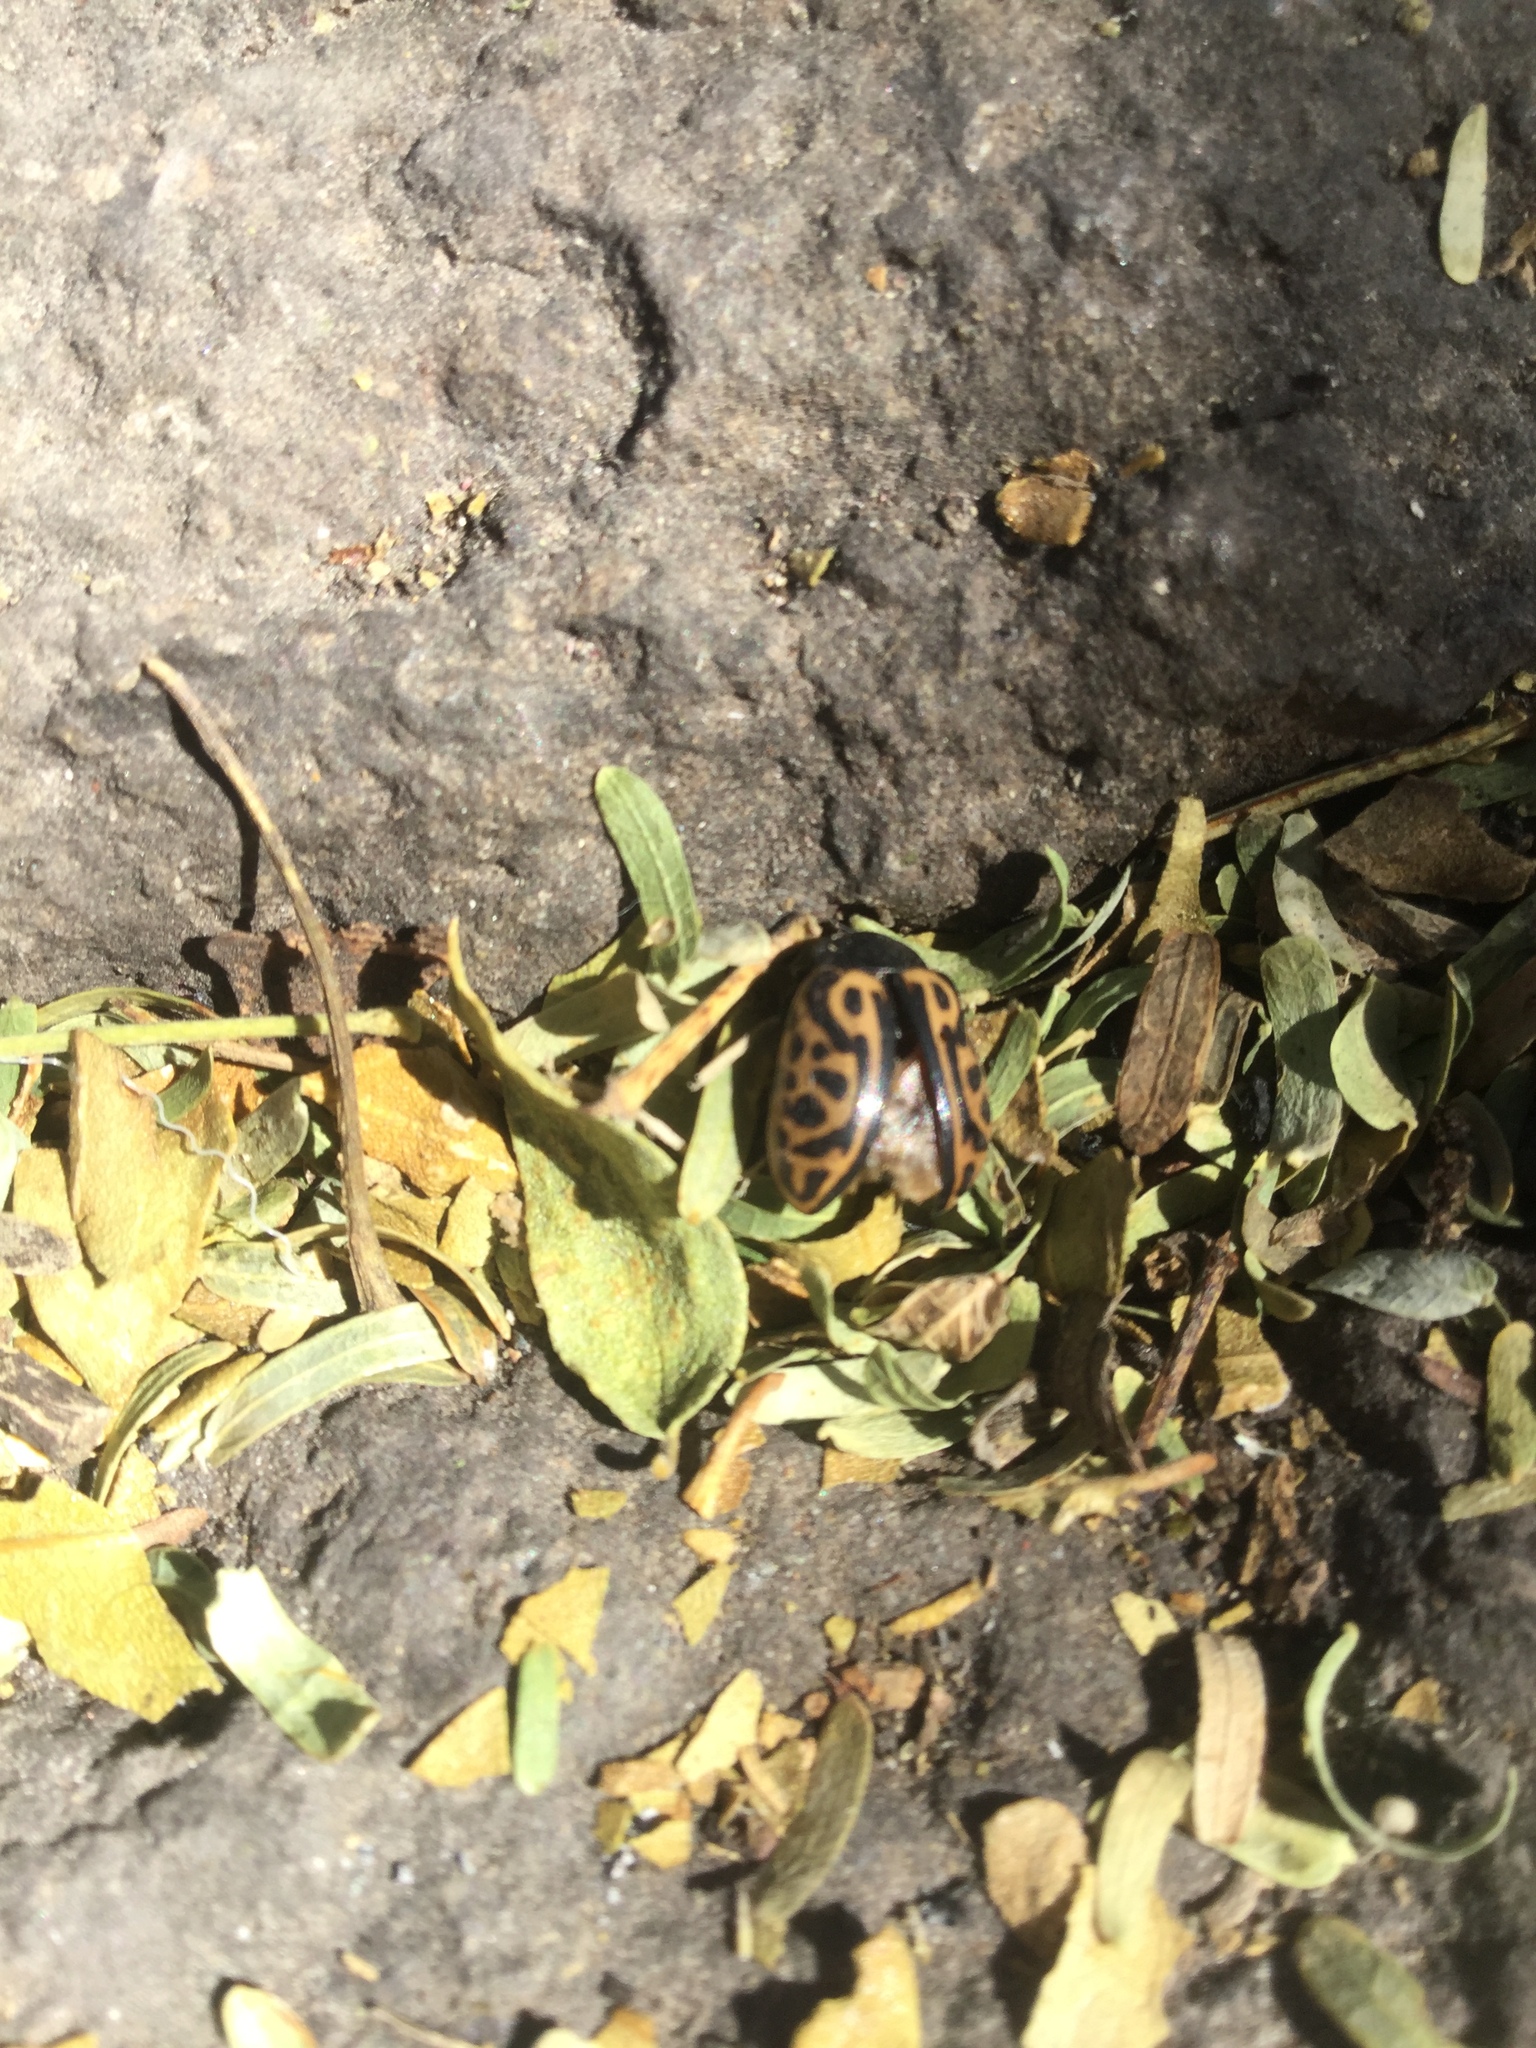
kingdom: Animalia
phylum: Arthropoda
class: Insecta
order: Coleoptera
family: Chrysomelidae
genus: Calligrapha
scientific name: Calligrapha mexicana
